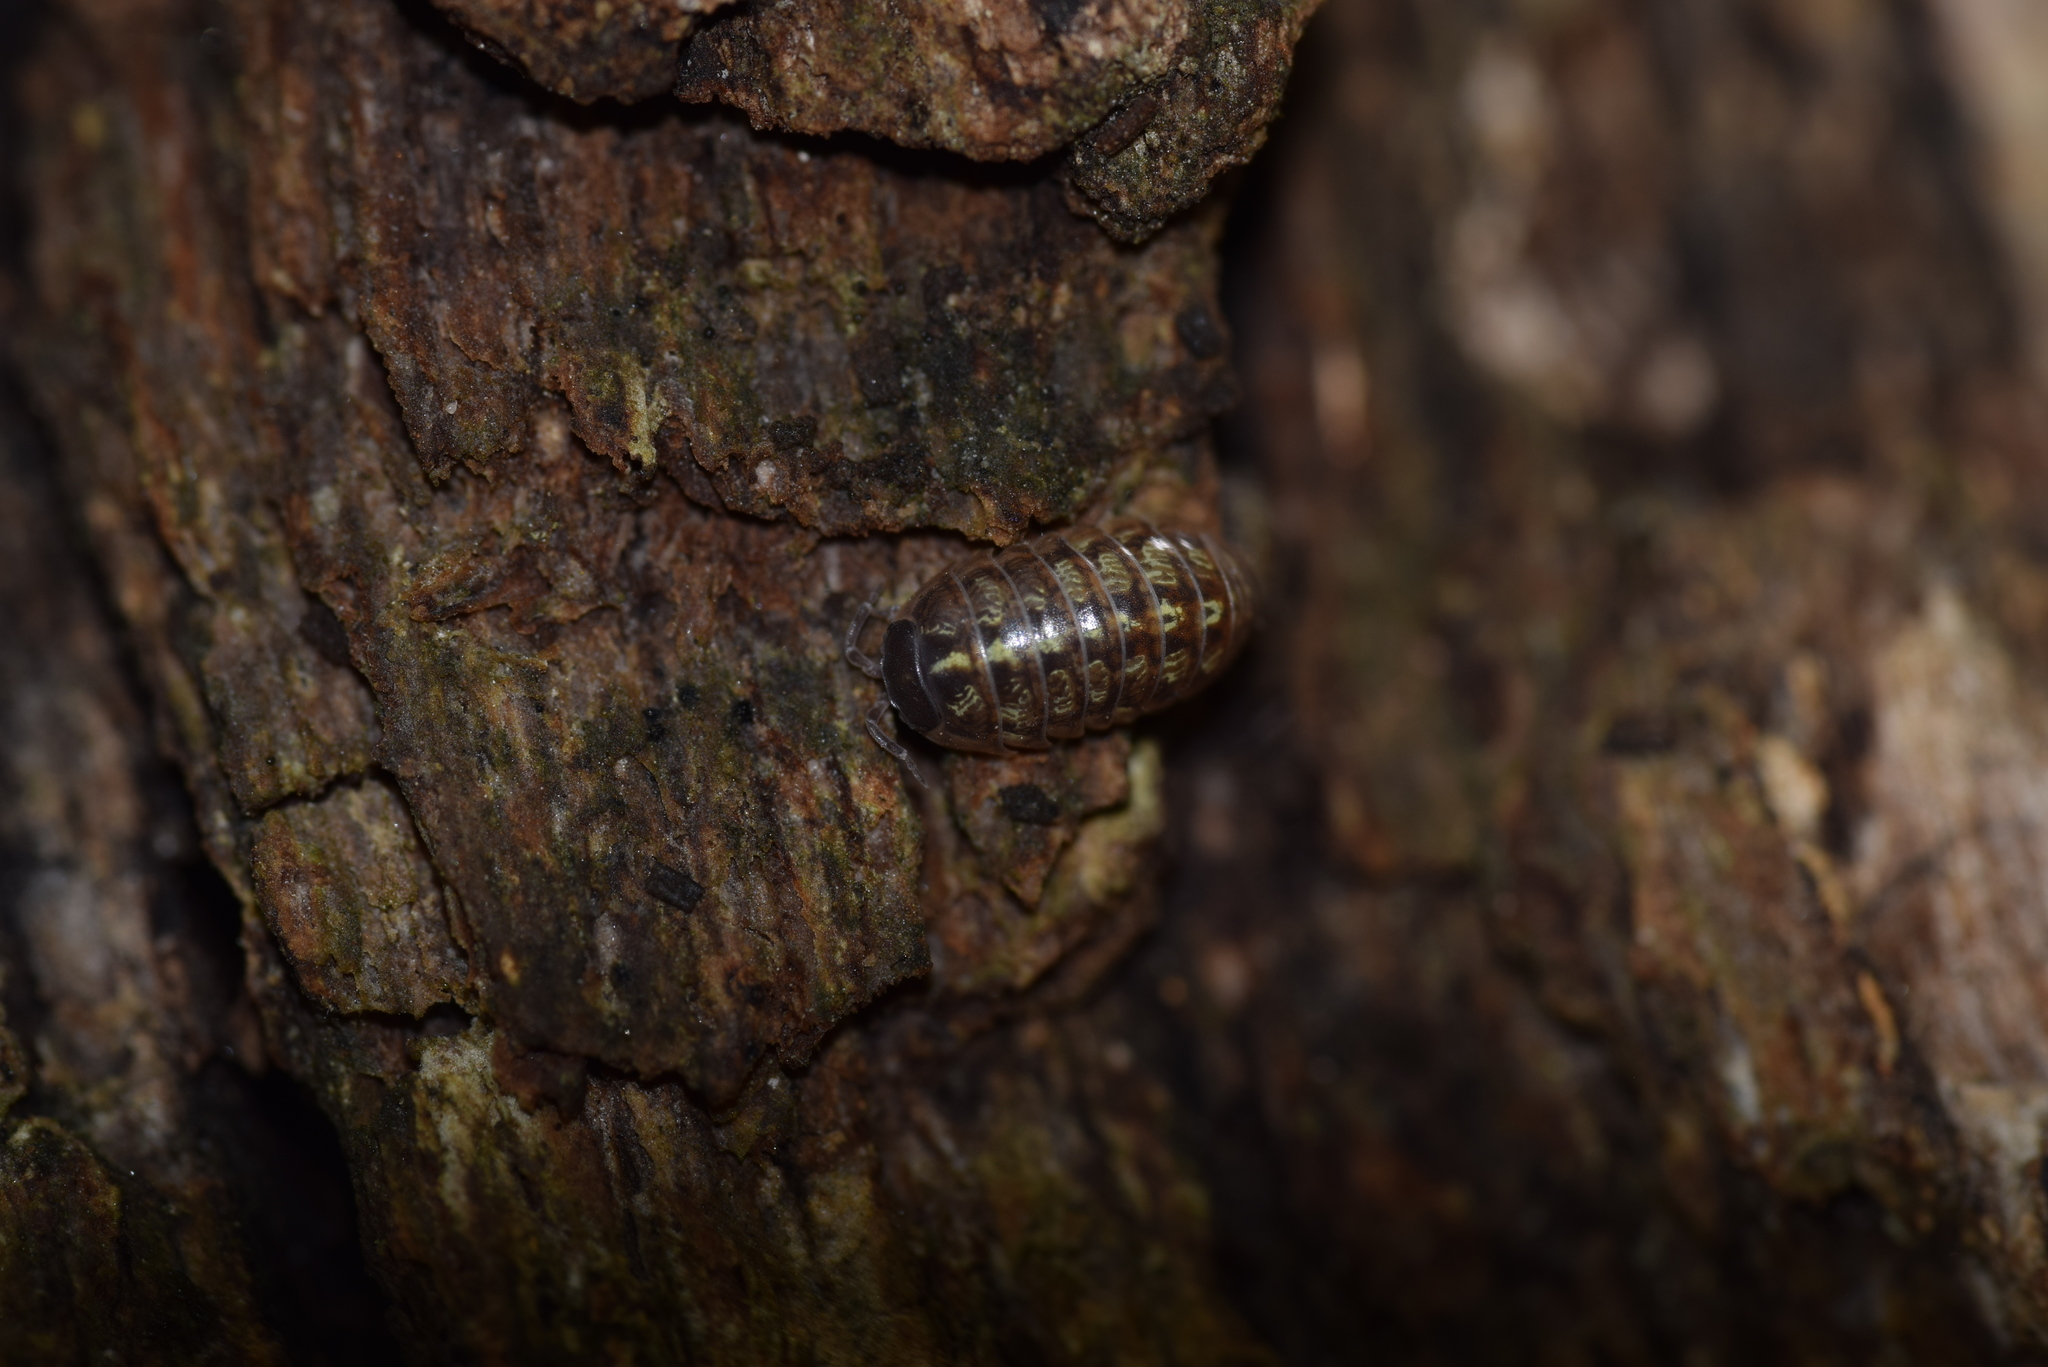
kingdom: Animalia
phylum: Arthropoda
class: Malacostraca
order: Isopoda
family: Armadillidiidae
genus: Armadillidium
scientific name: Armadillidium vulgare
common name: Common pill woodlouse
